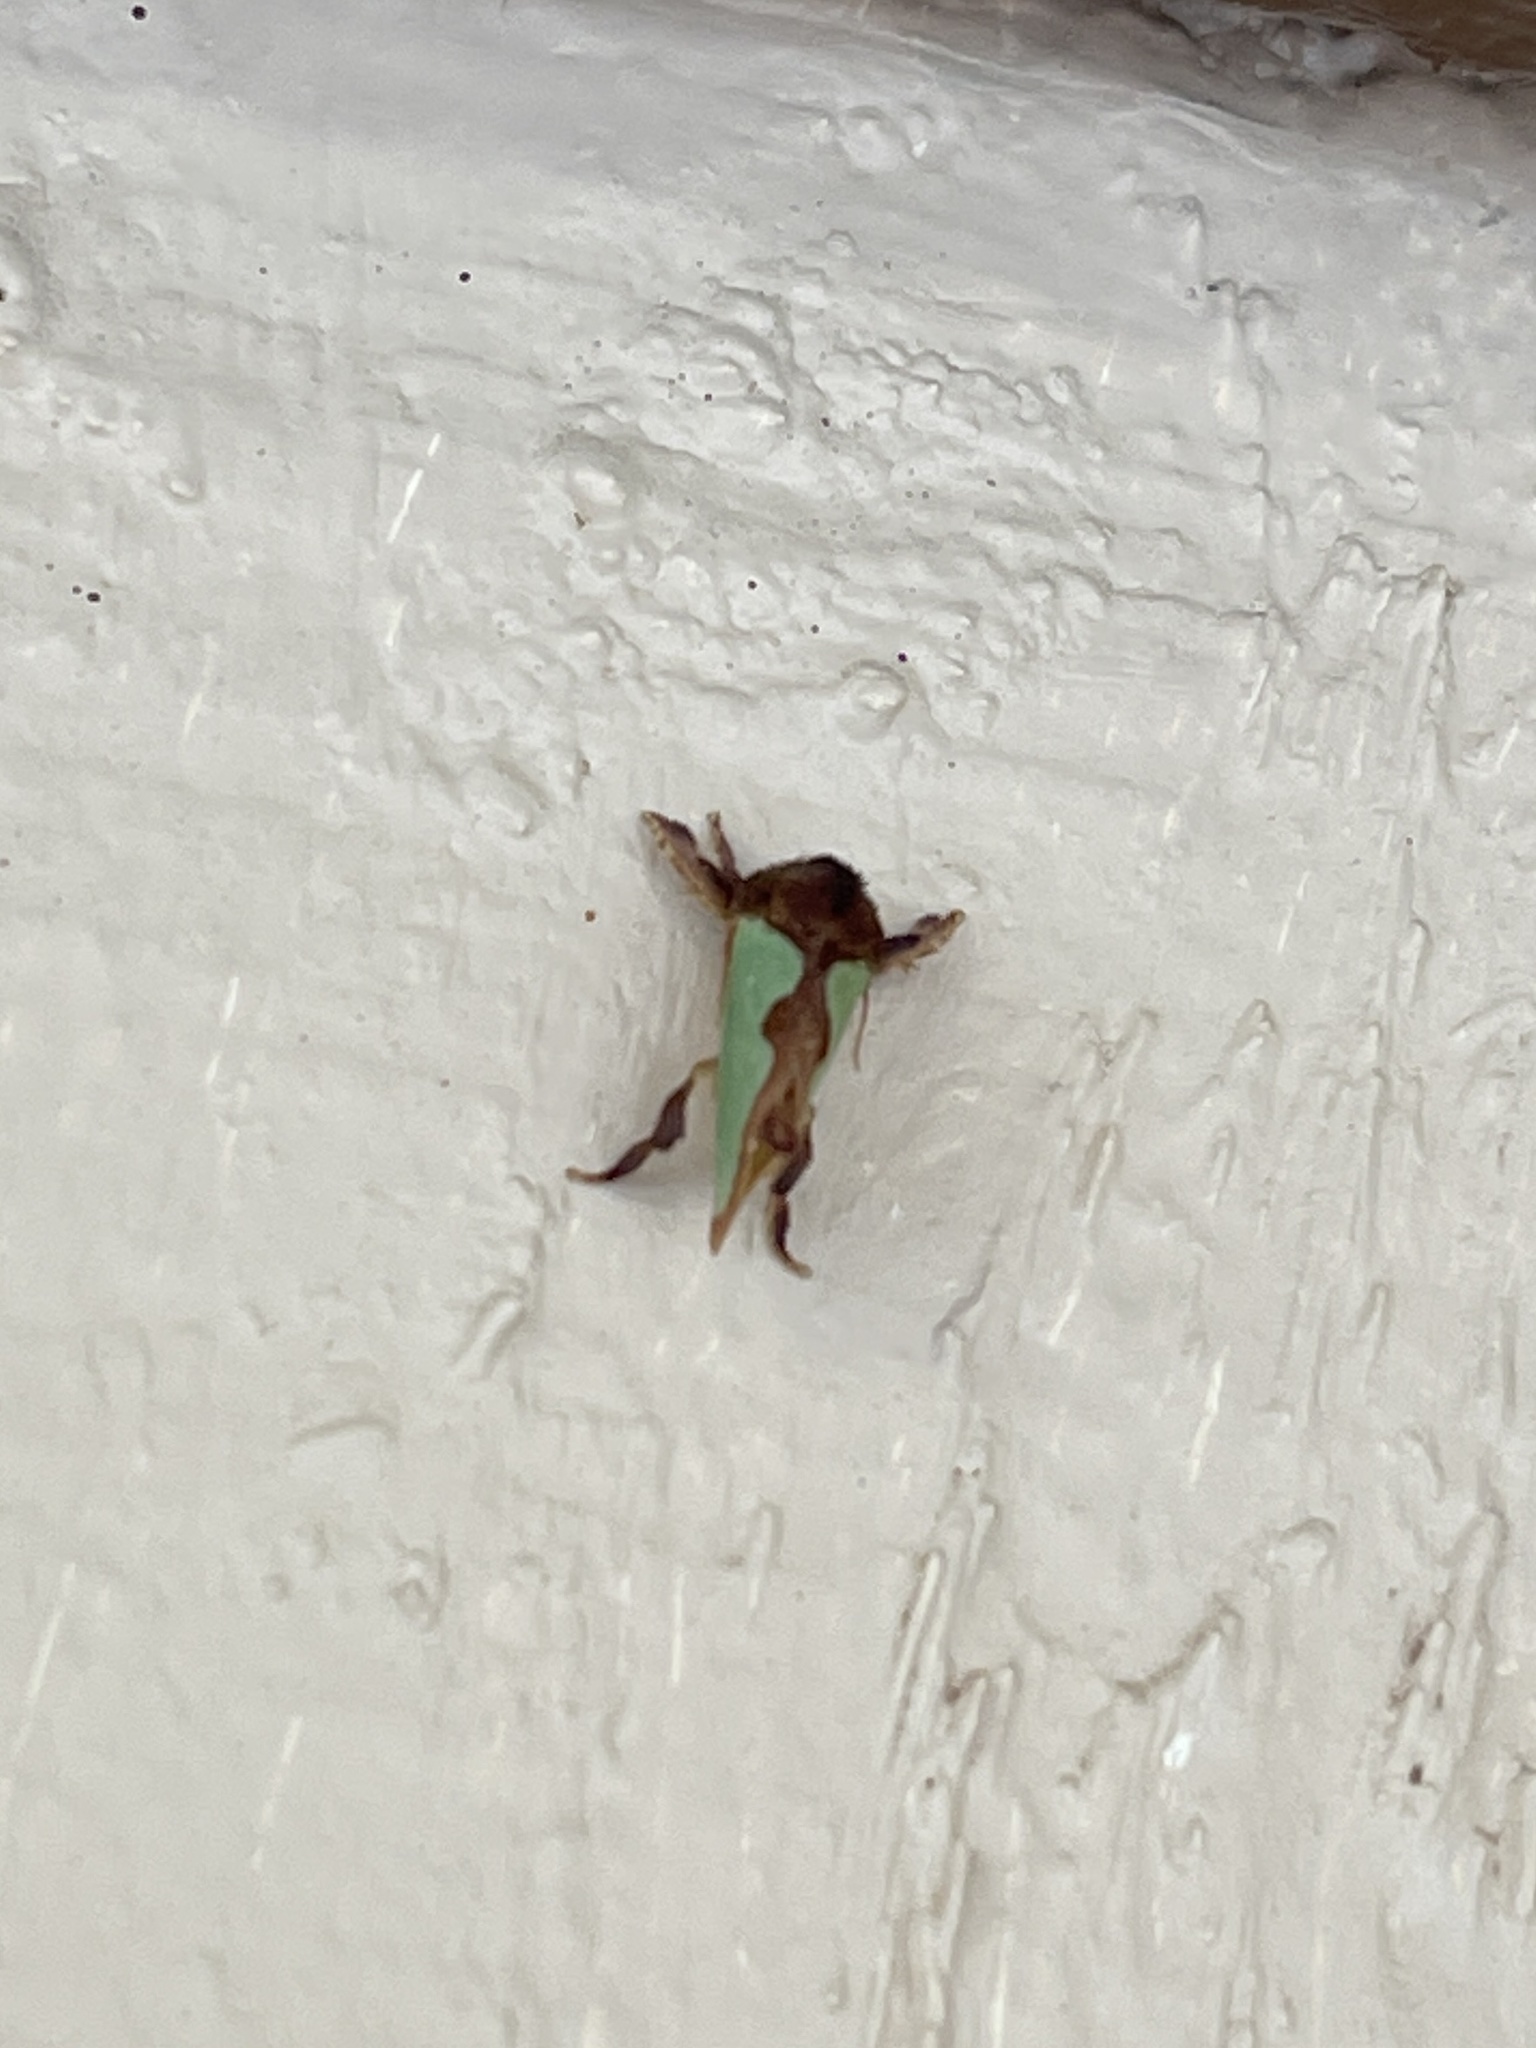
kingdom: Animalia
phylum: Arthropoda
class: Insecta
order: Lepidoptera
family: Limacodidae
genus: Euclea
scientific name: Euclea incisa
